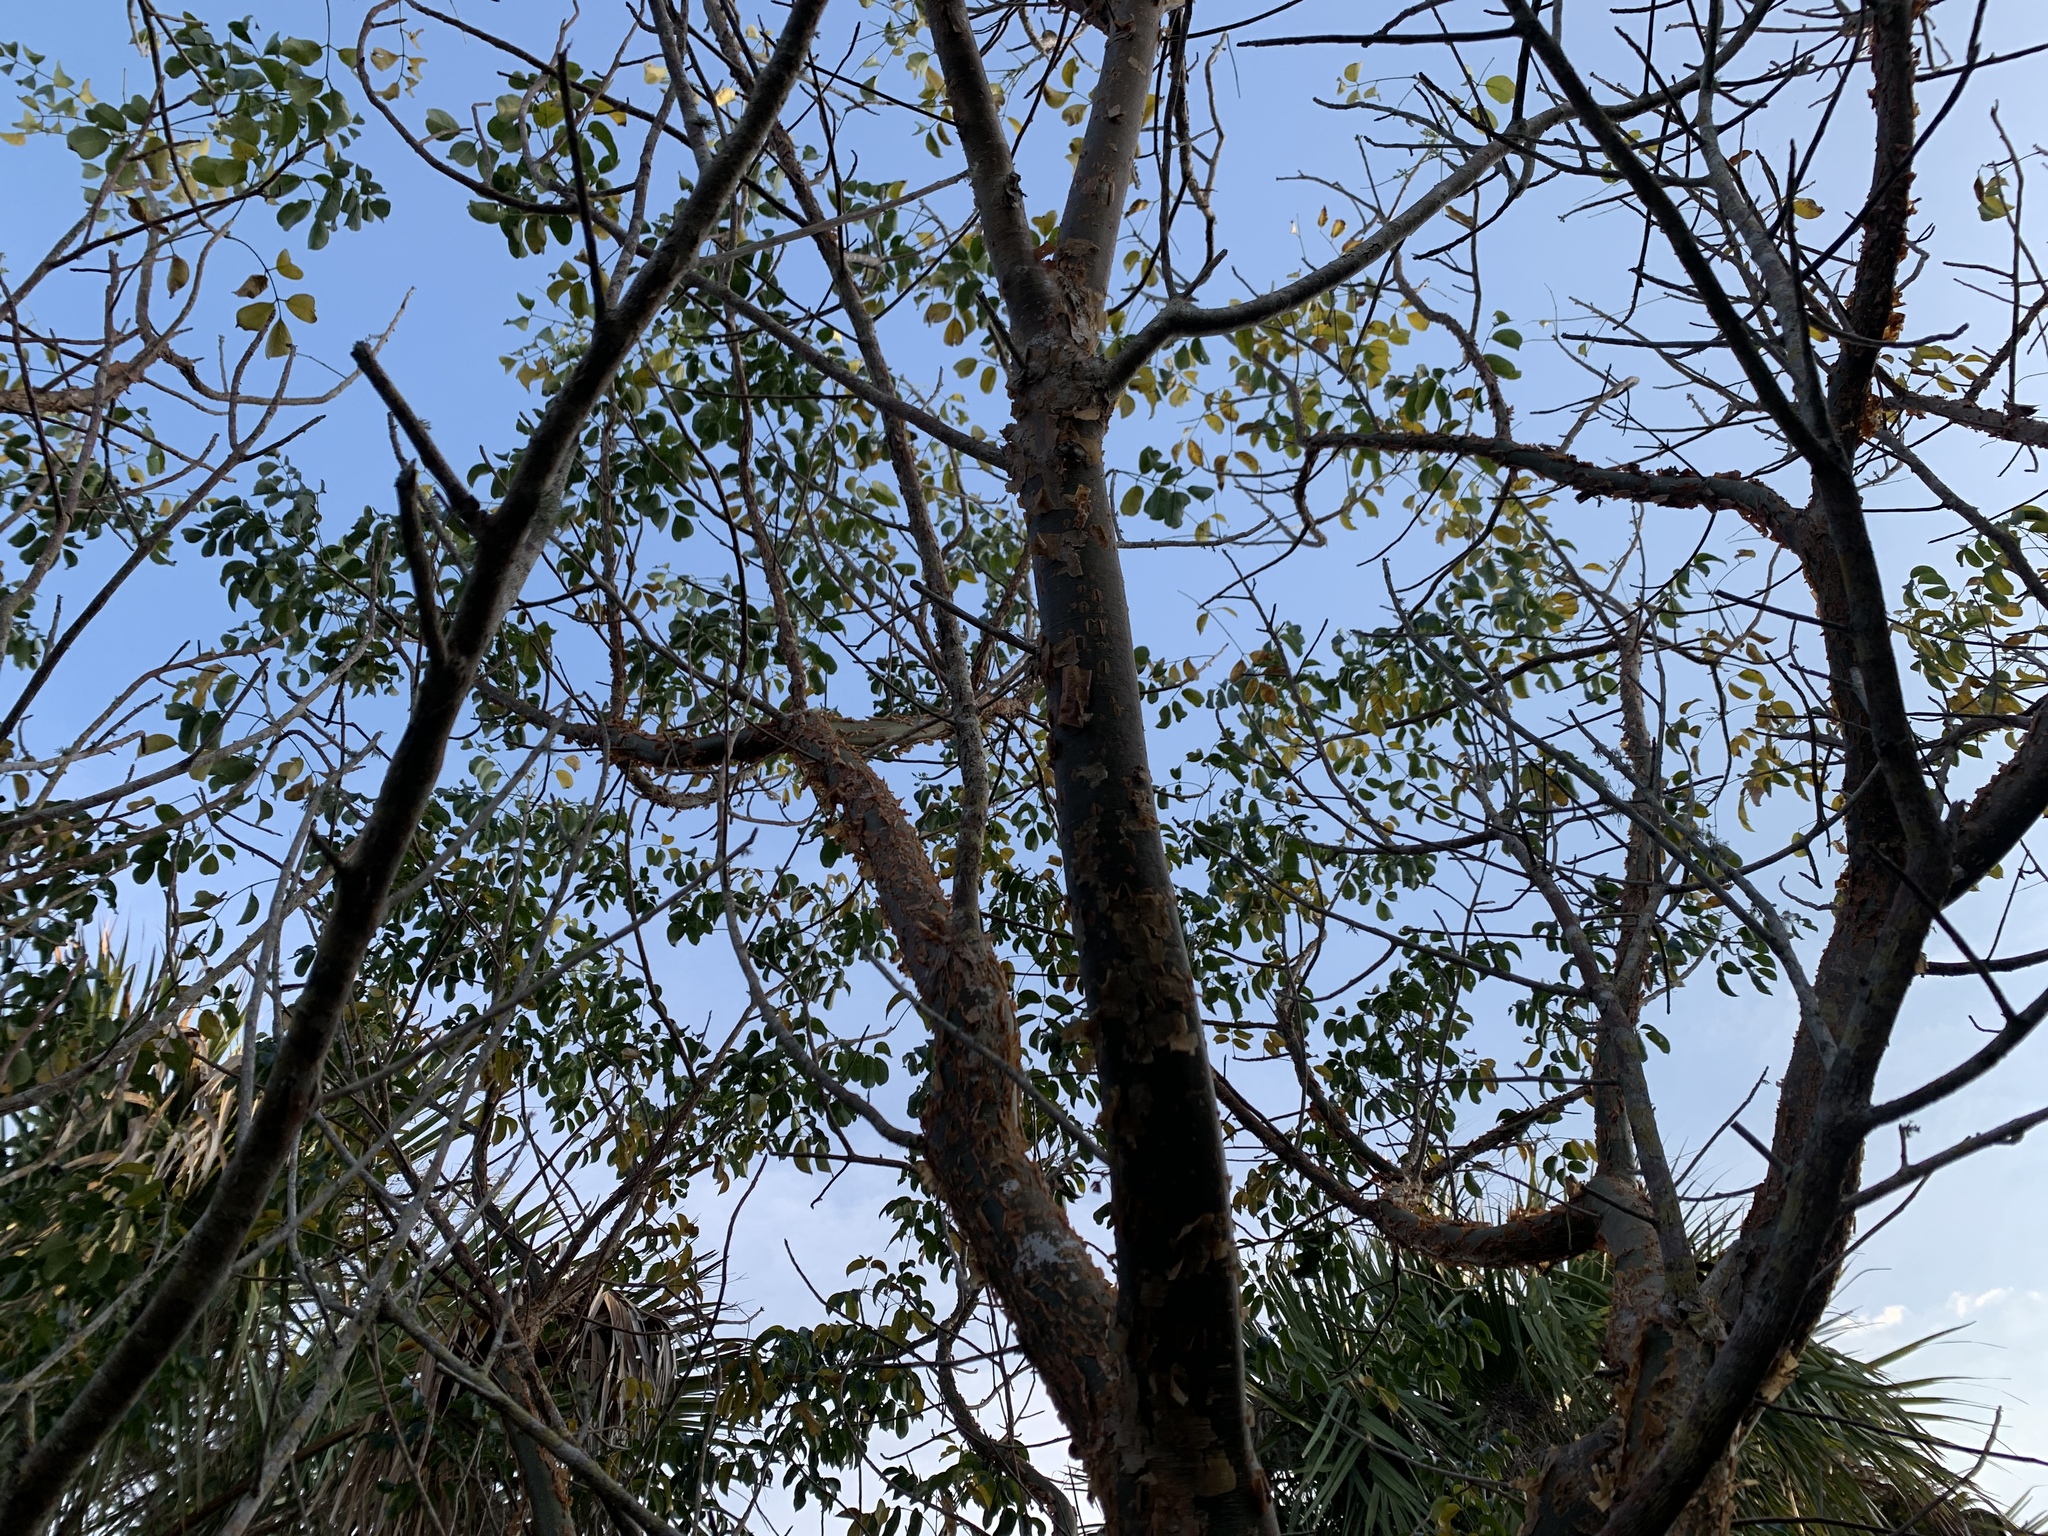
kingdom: Plantae
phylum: Tracheophyta
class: Magnoliopsida
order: Sapindales
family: Burseraceae
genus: Bursera
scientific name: Bursera simaruba
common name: Turpentine tree
